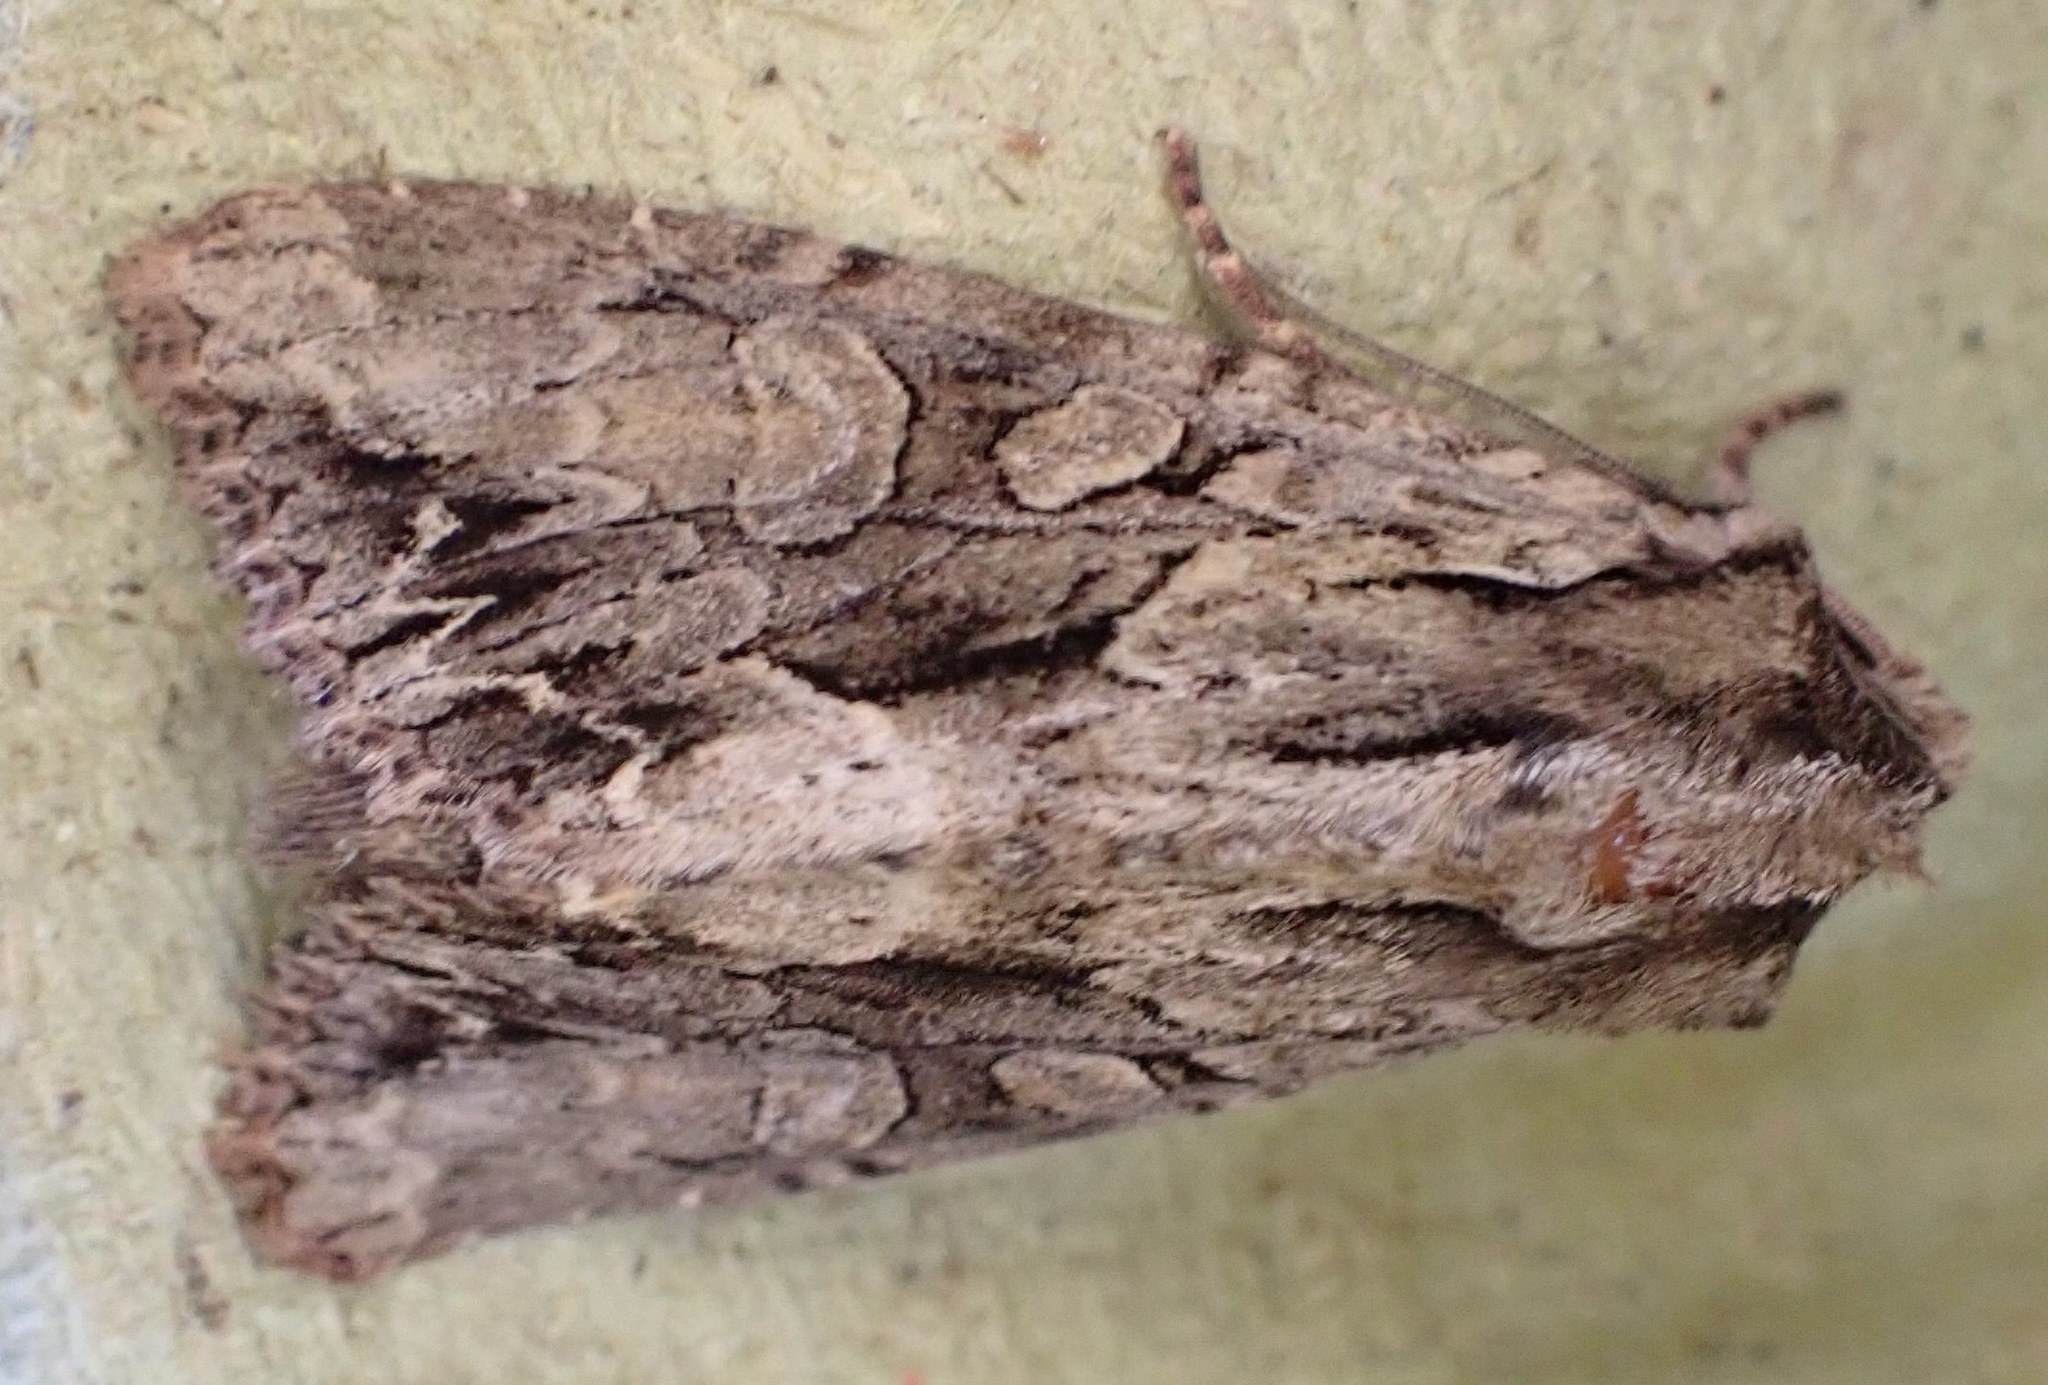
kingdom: Animalia
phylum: Arthropoda
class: Insecta
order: Lepidoptera
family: Noctuidae
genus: Apamea
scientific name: Apamea monoglypha
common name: Dark arches
